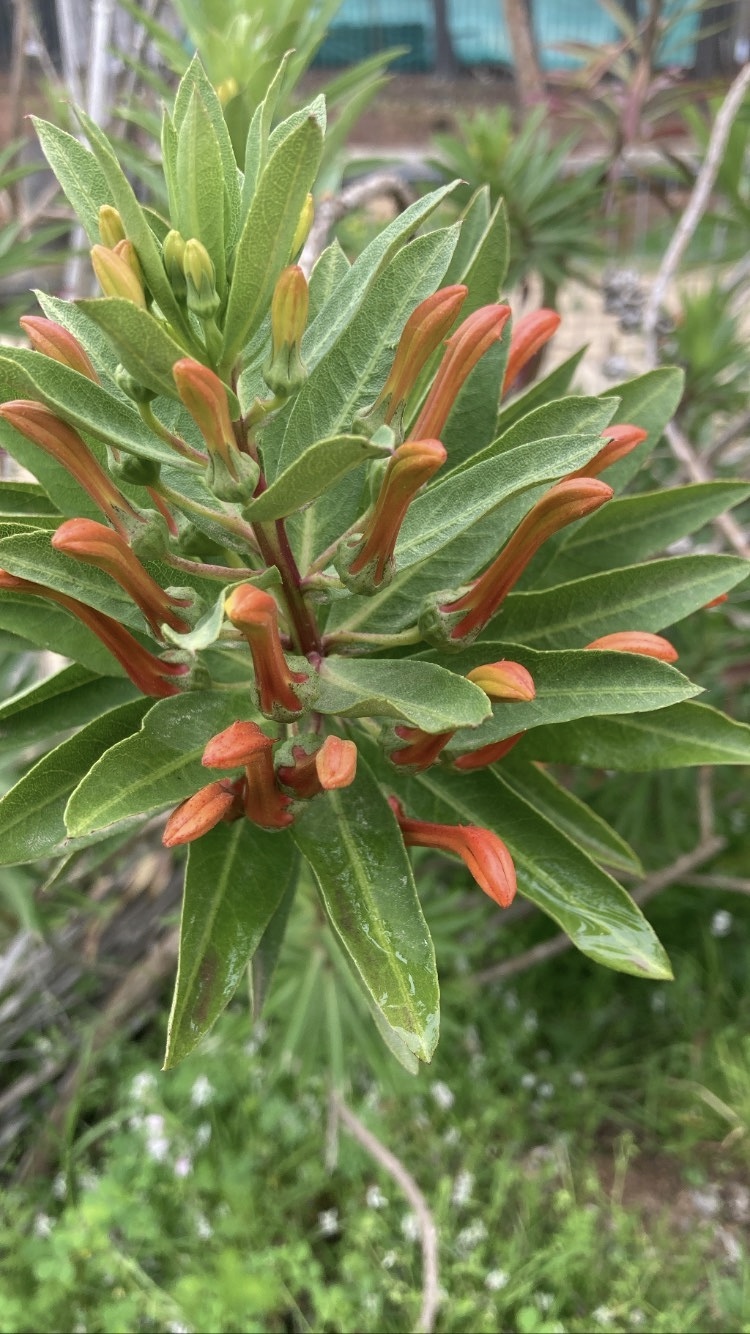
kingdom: Plantae
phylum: Tracheophyta
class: Magnoliopsida
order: Asterales
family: Campanulaceae
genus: Lobelia
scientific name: Lobelia excelsa
